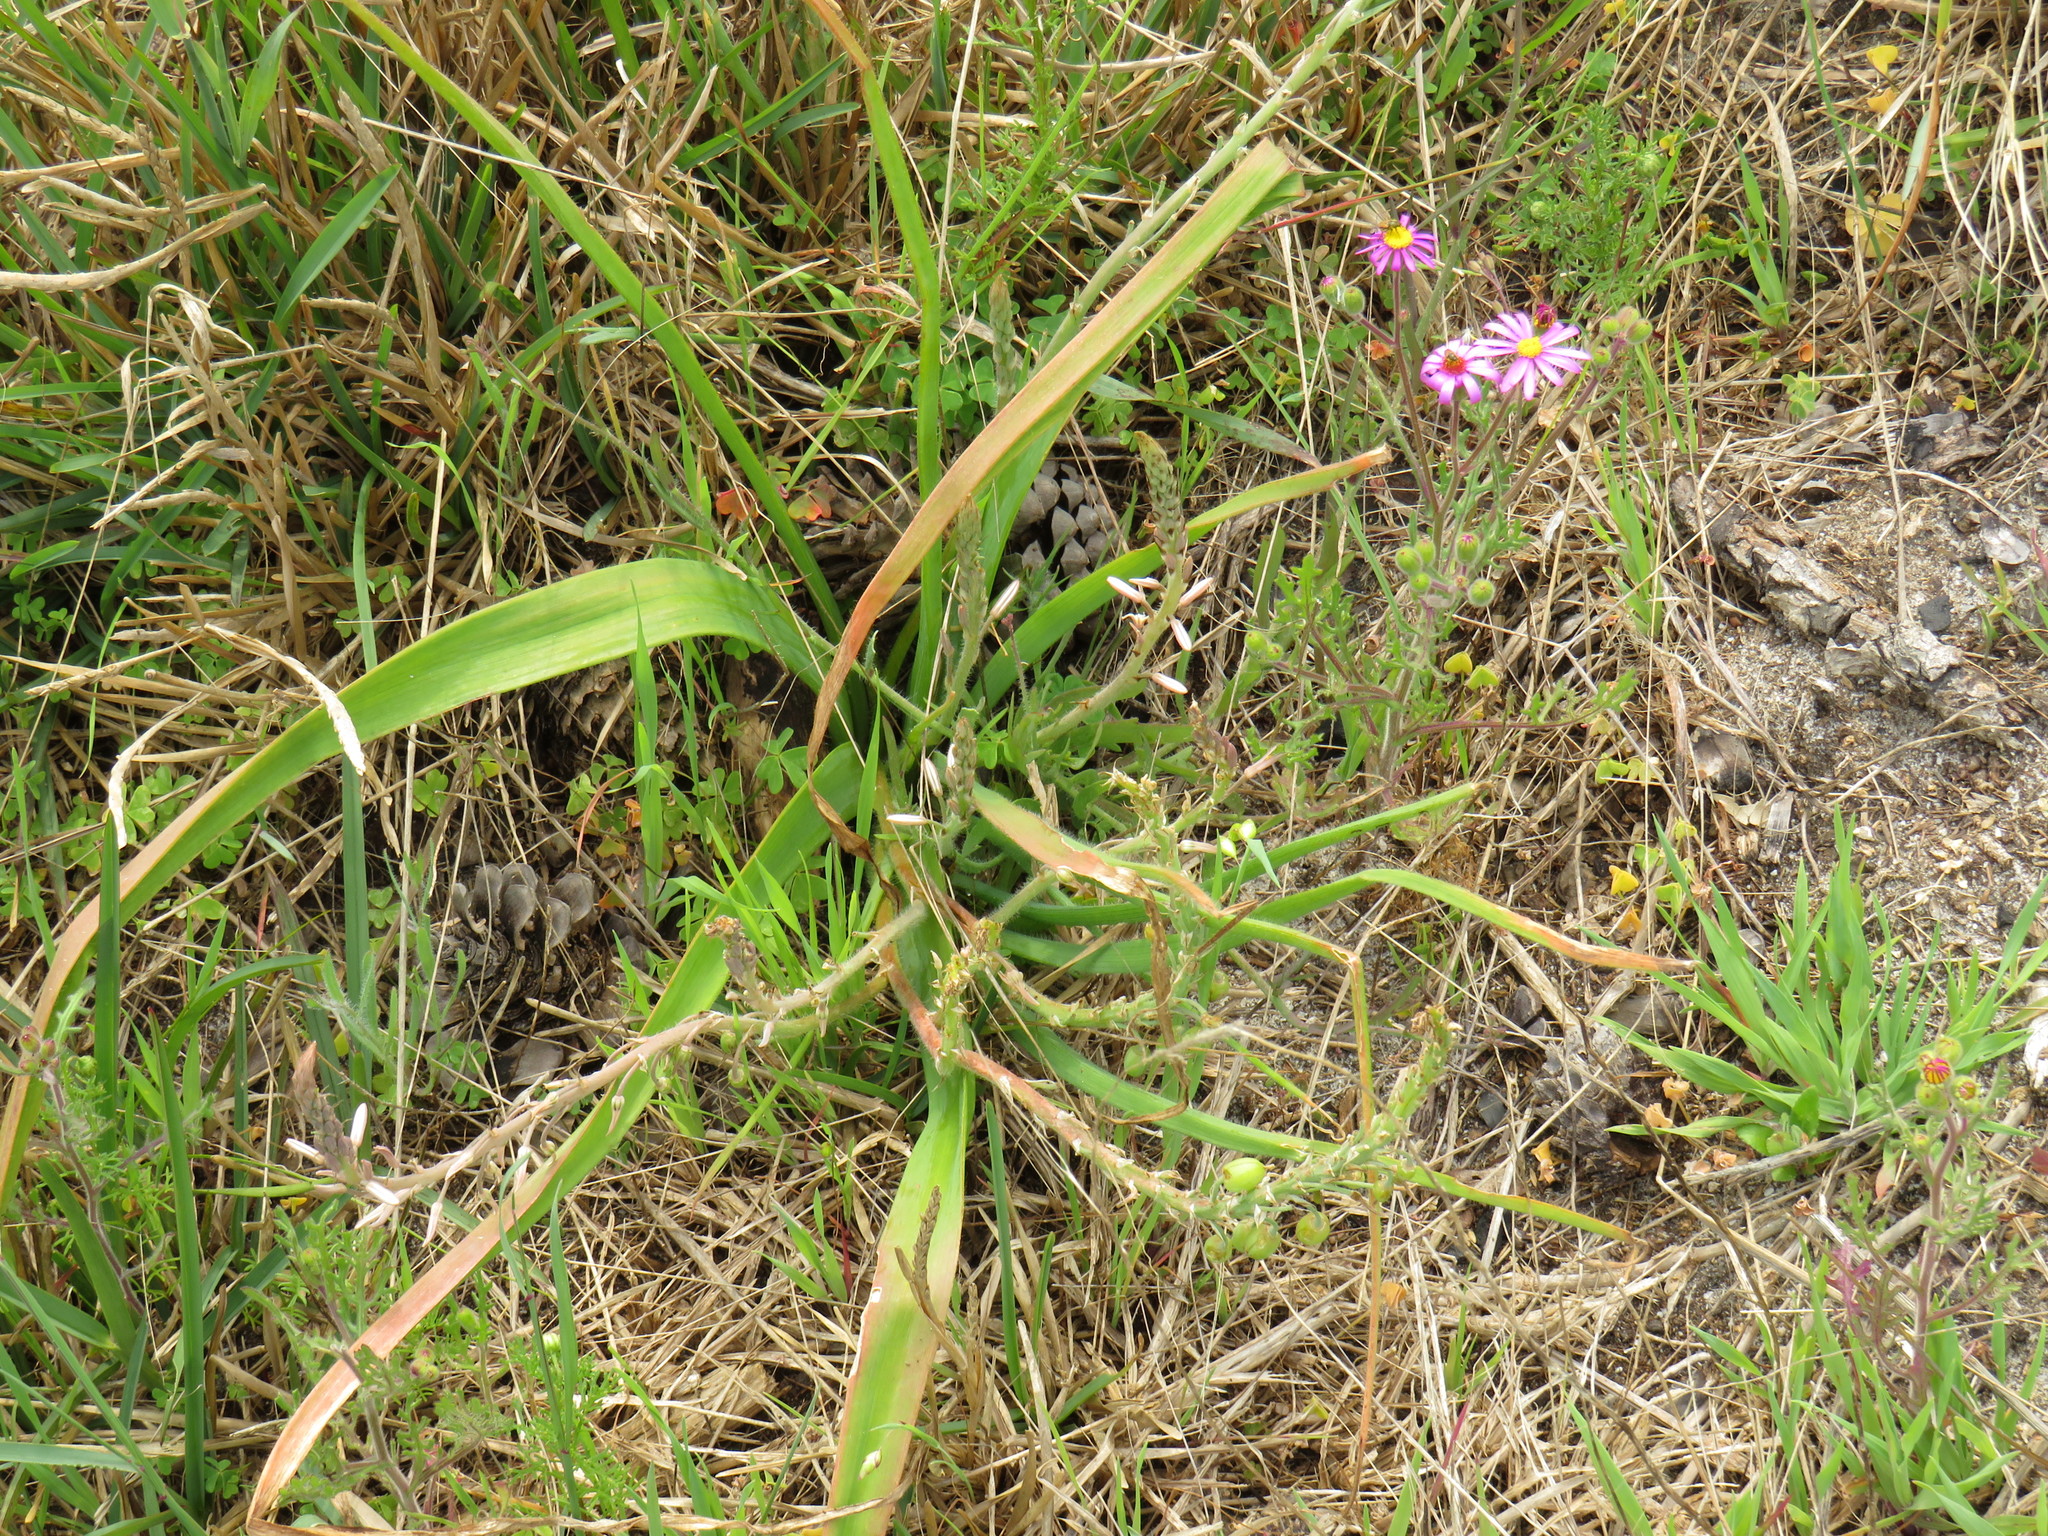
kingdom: Plantae
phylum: Tracheophyta
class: Liliopsida
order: Asparagales
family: Asphodelaceae
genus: Trachyandra
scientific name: Trachyandra ciliata
